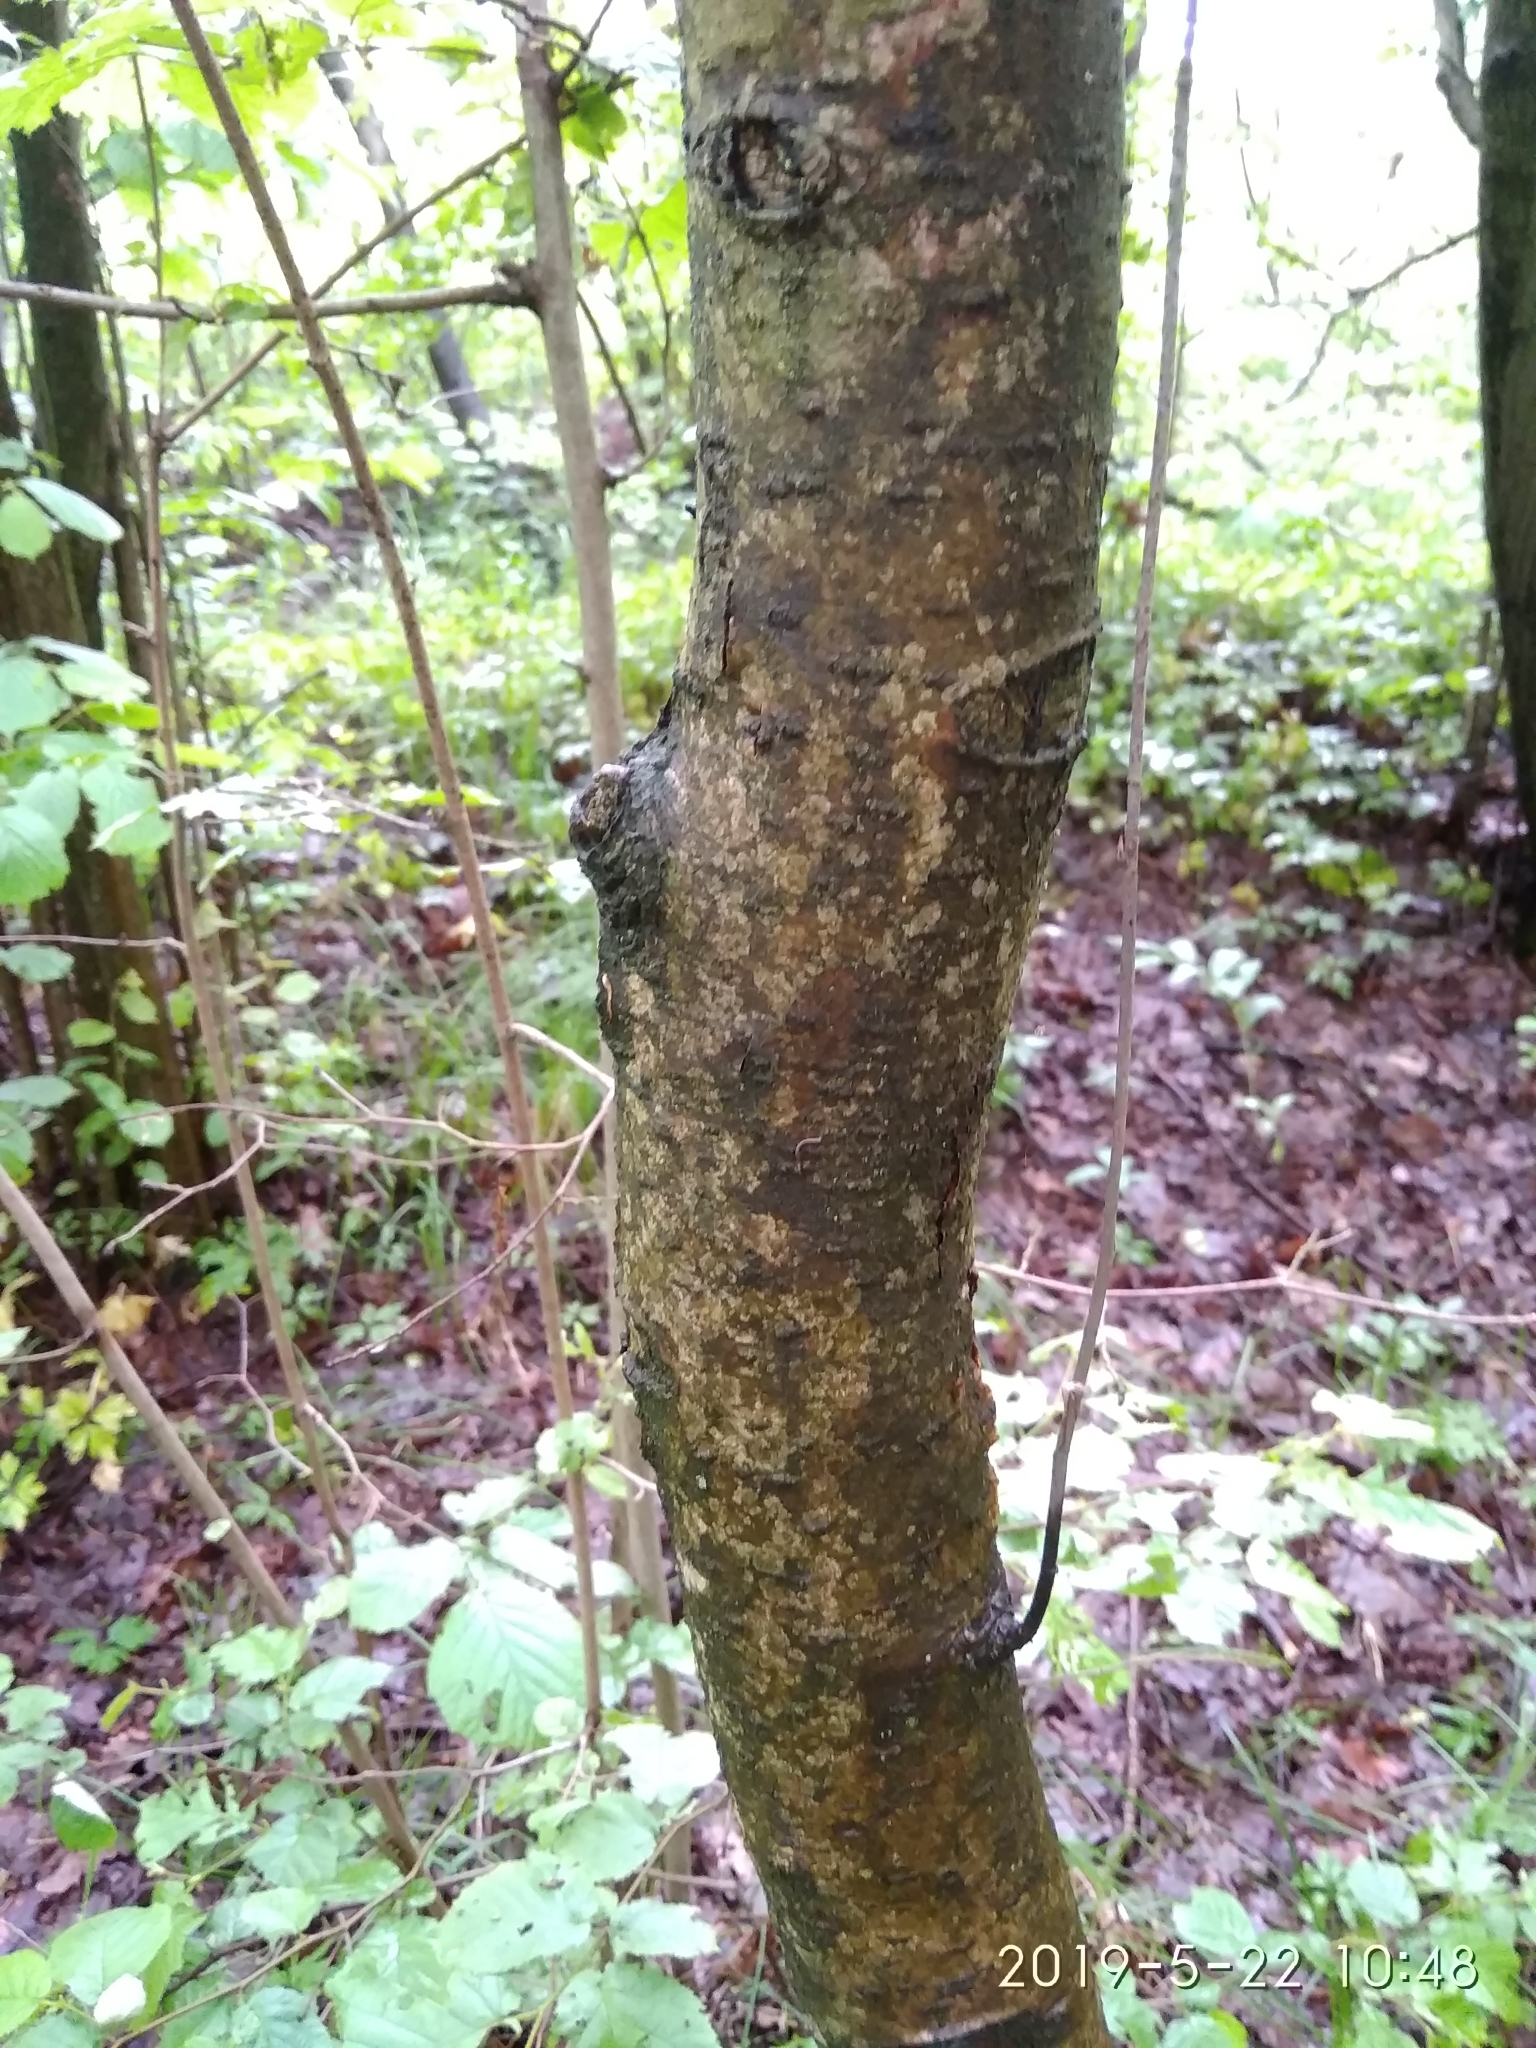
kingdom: Plantae
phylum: Tracheophyta
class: Magnoliopsida
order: Rosales
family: Rosaceae
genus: Sorbus
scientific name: Sorbus aucuparia
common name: Rowan
